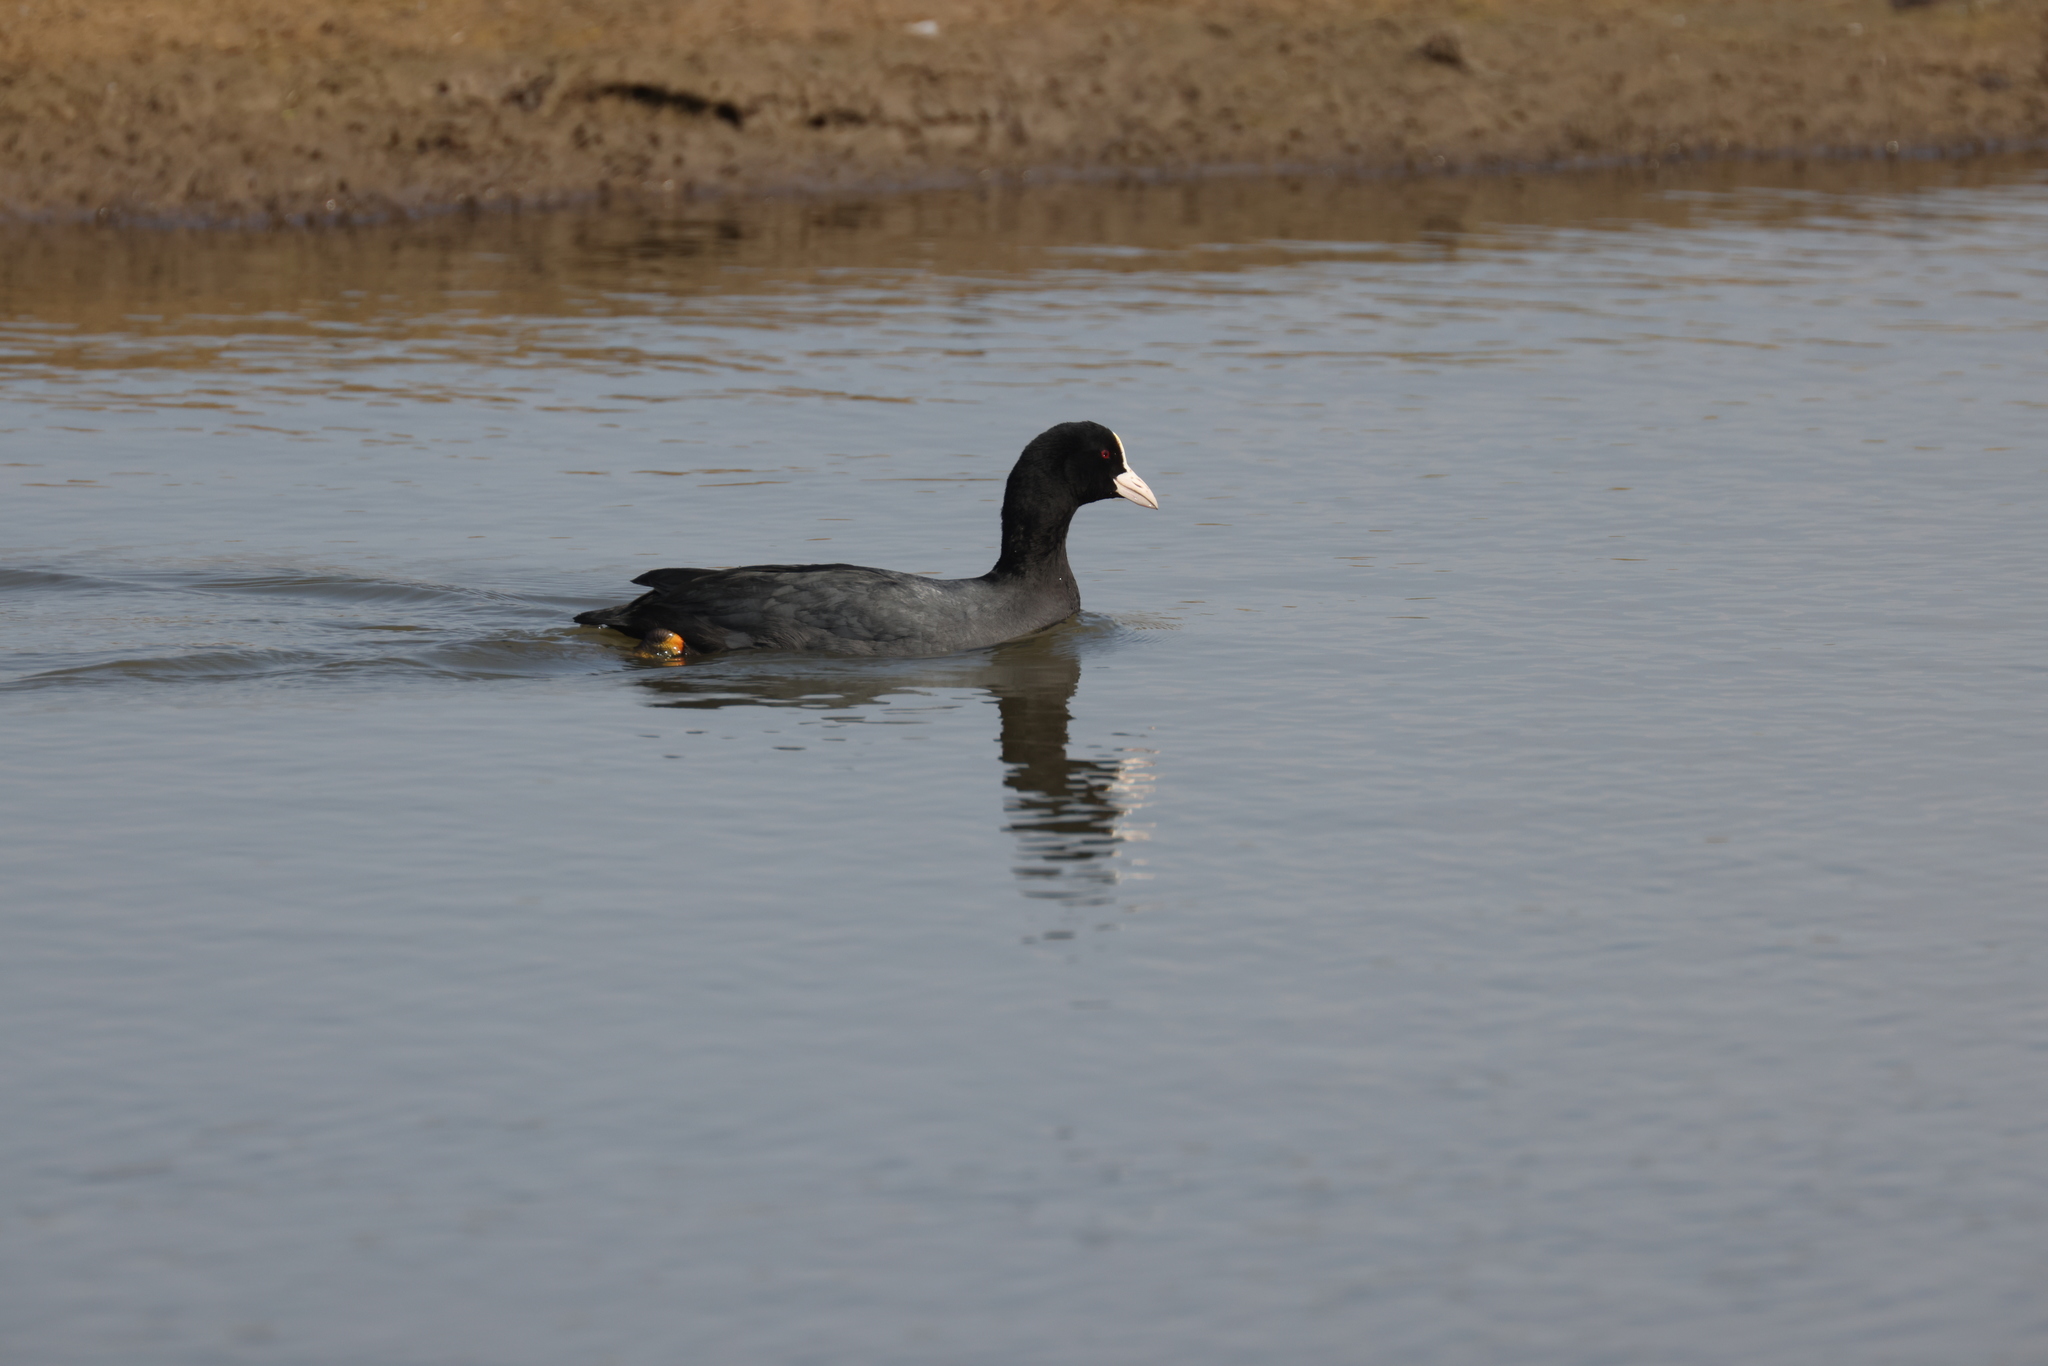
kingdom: Animalia
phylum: Chordata
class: Aves
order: Gruiformes
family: Rallidae
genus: Fulica
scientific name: Fulica atra
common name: Eurasian coot
